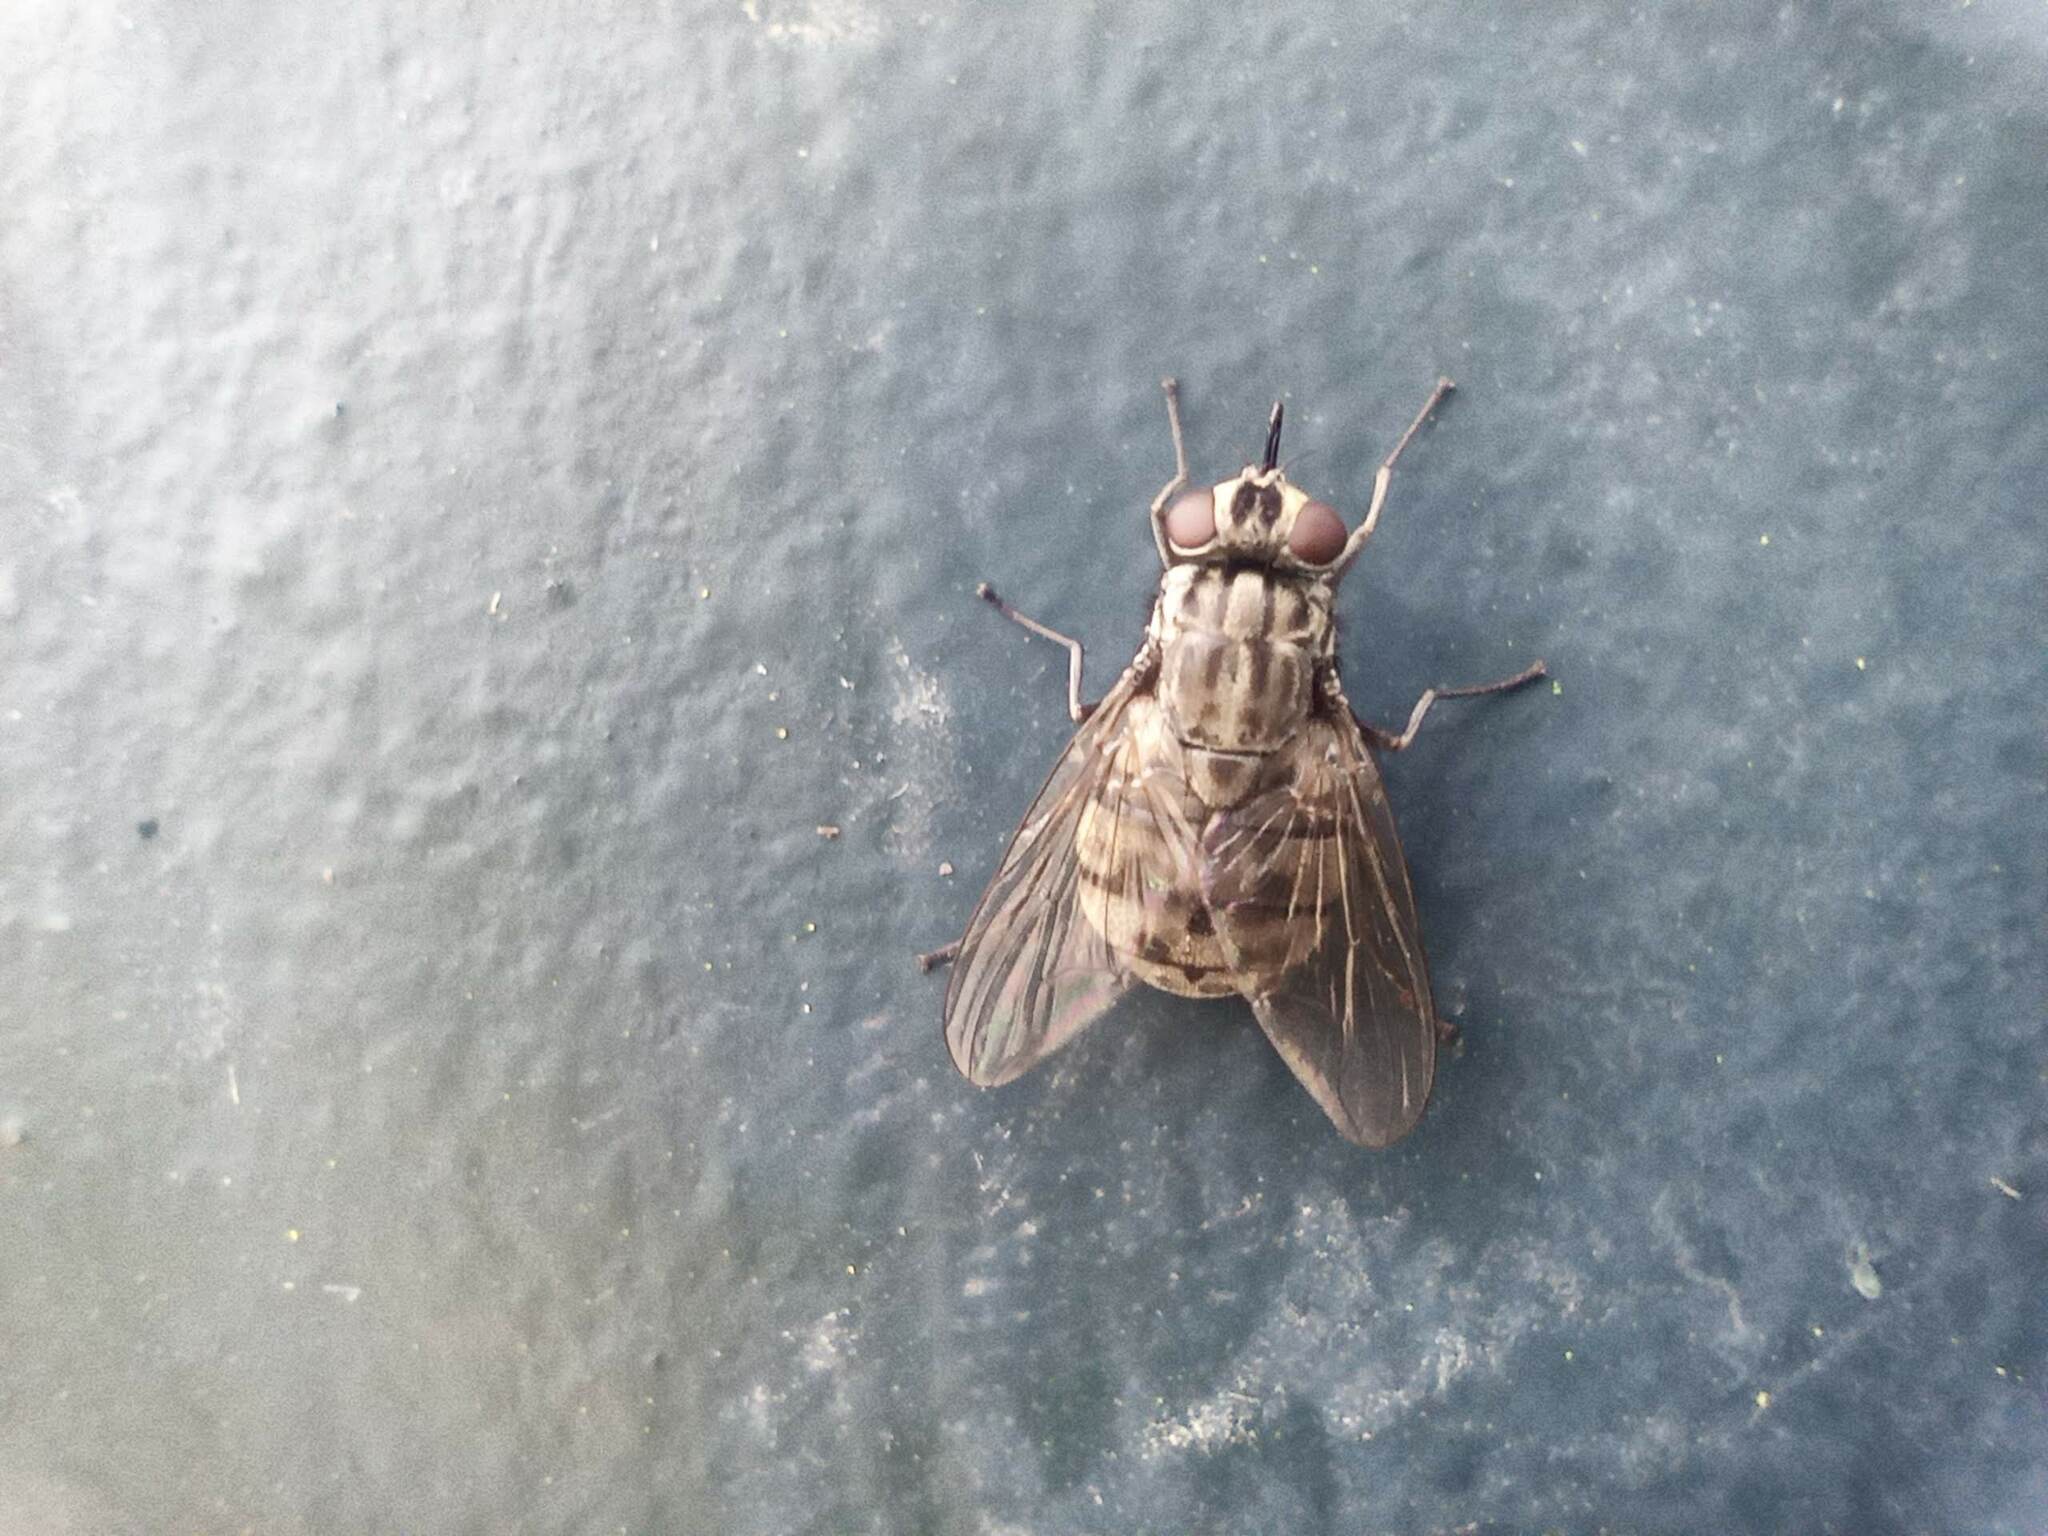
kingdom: Animalia
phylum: Arthropoda
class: Insecta
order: Diptera
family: Muscidae
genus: Stomoxys
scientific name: Stomoxys calcitrans
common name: Stable fly
